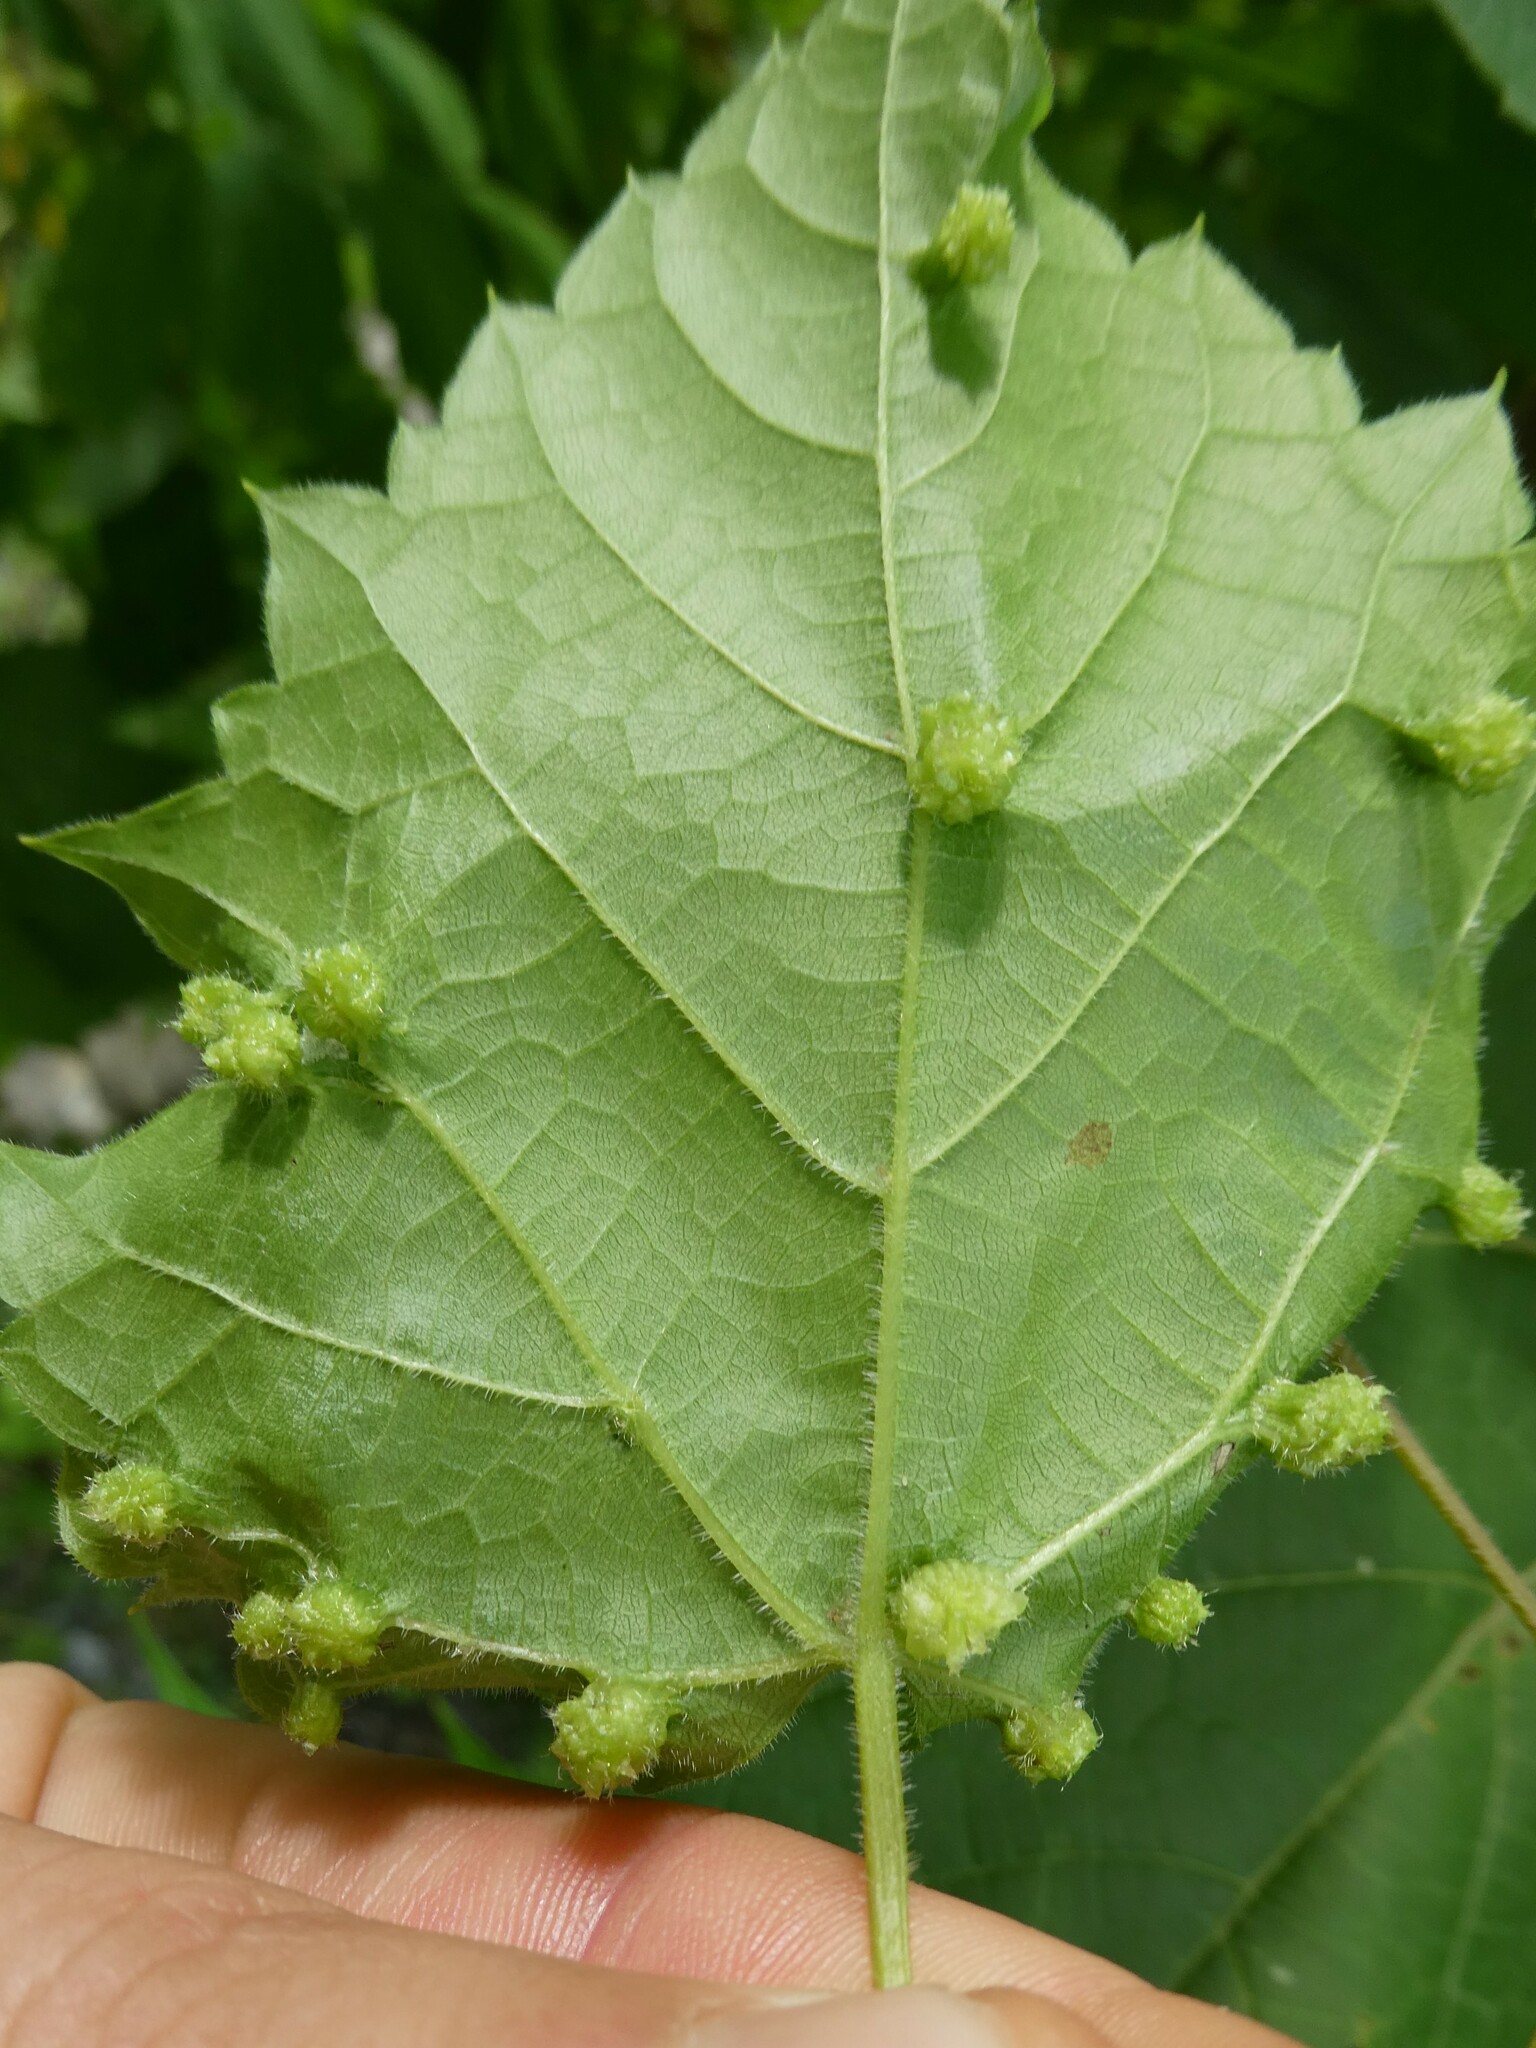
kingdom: Animalia
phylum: Arthropoda
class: Insecta
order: Hemiptera
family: Phylloxeridae
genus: Daktulosphaira
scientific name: Daktulosphaira vitifoliae
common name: Grape phylloxera
